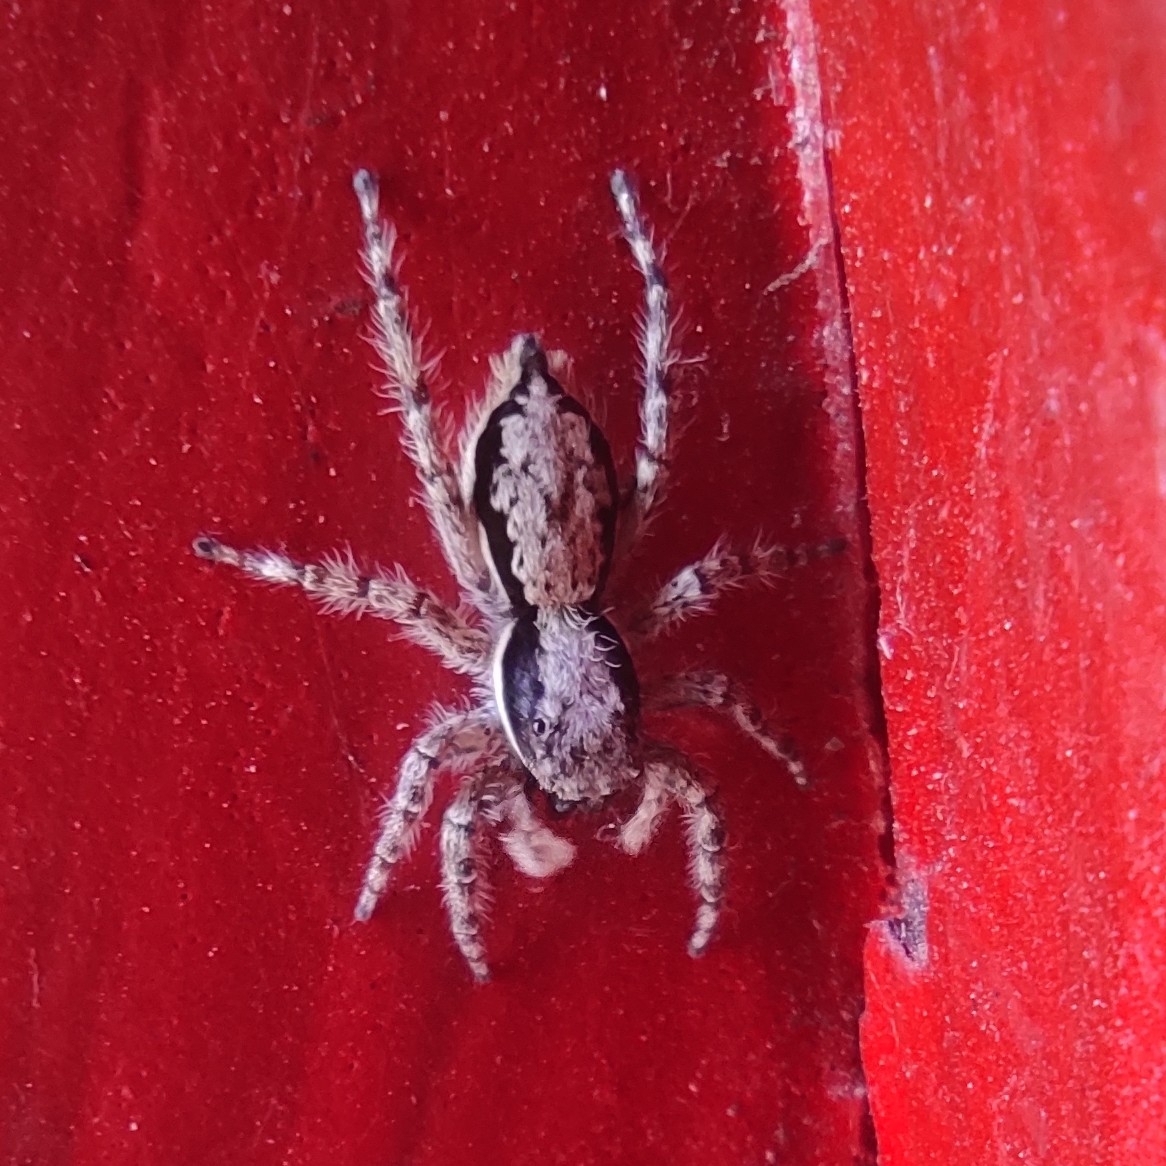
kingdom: Animalia
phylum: Arthropoda
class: Arachnida
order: Araneae
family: Salticidae
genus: Menemerus
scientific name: Menemerus bivittatus
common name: Gray wall jumper
